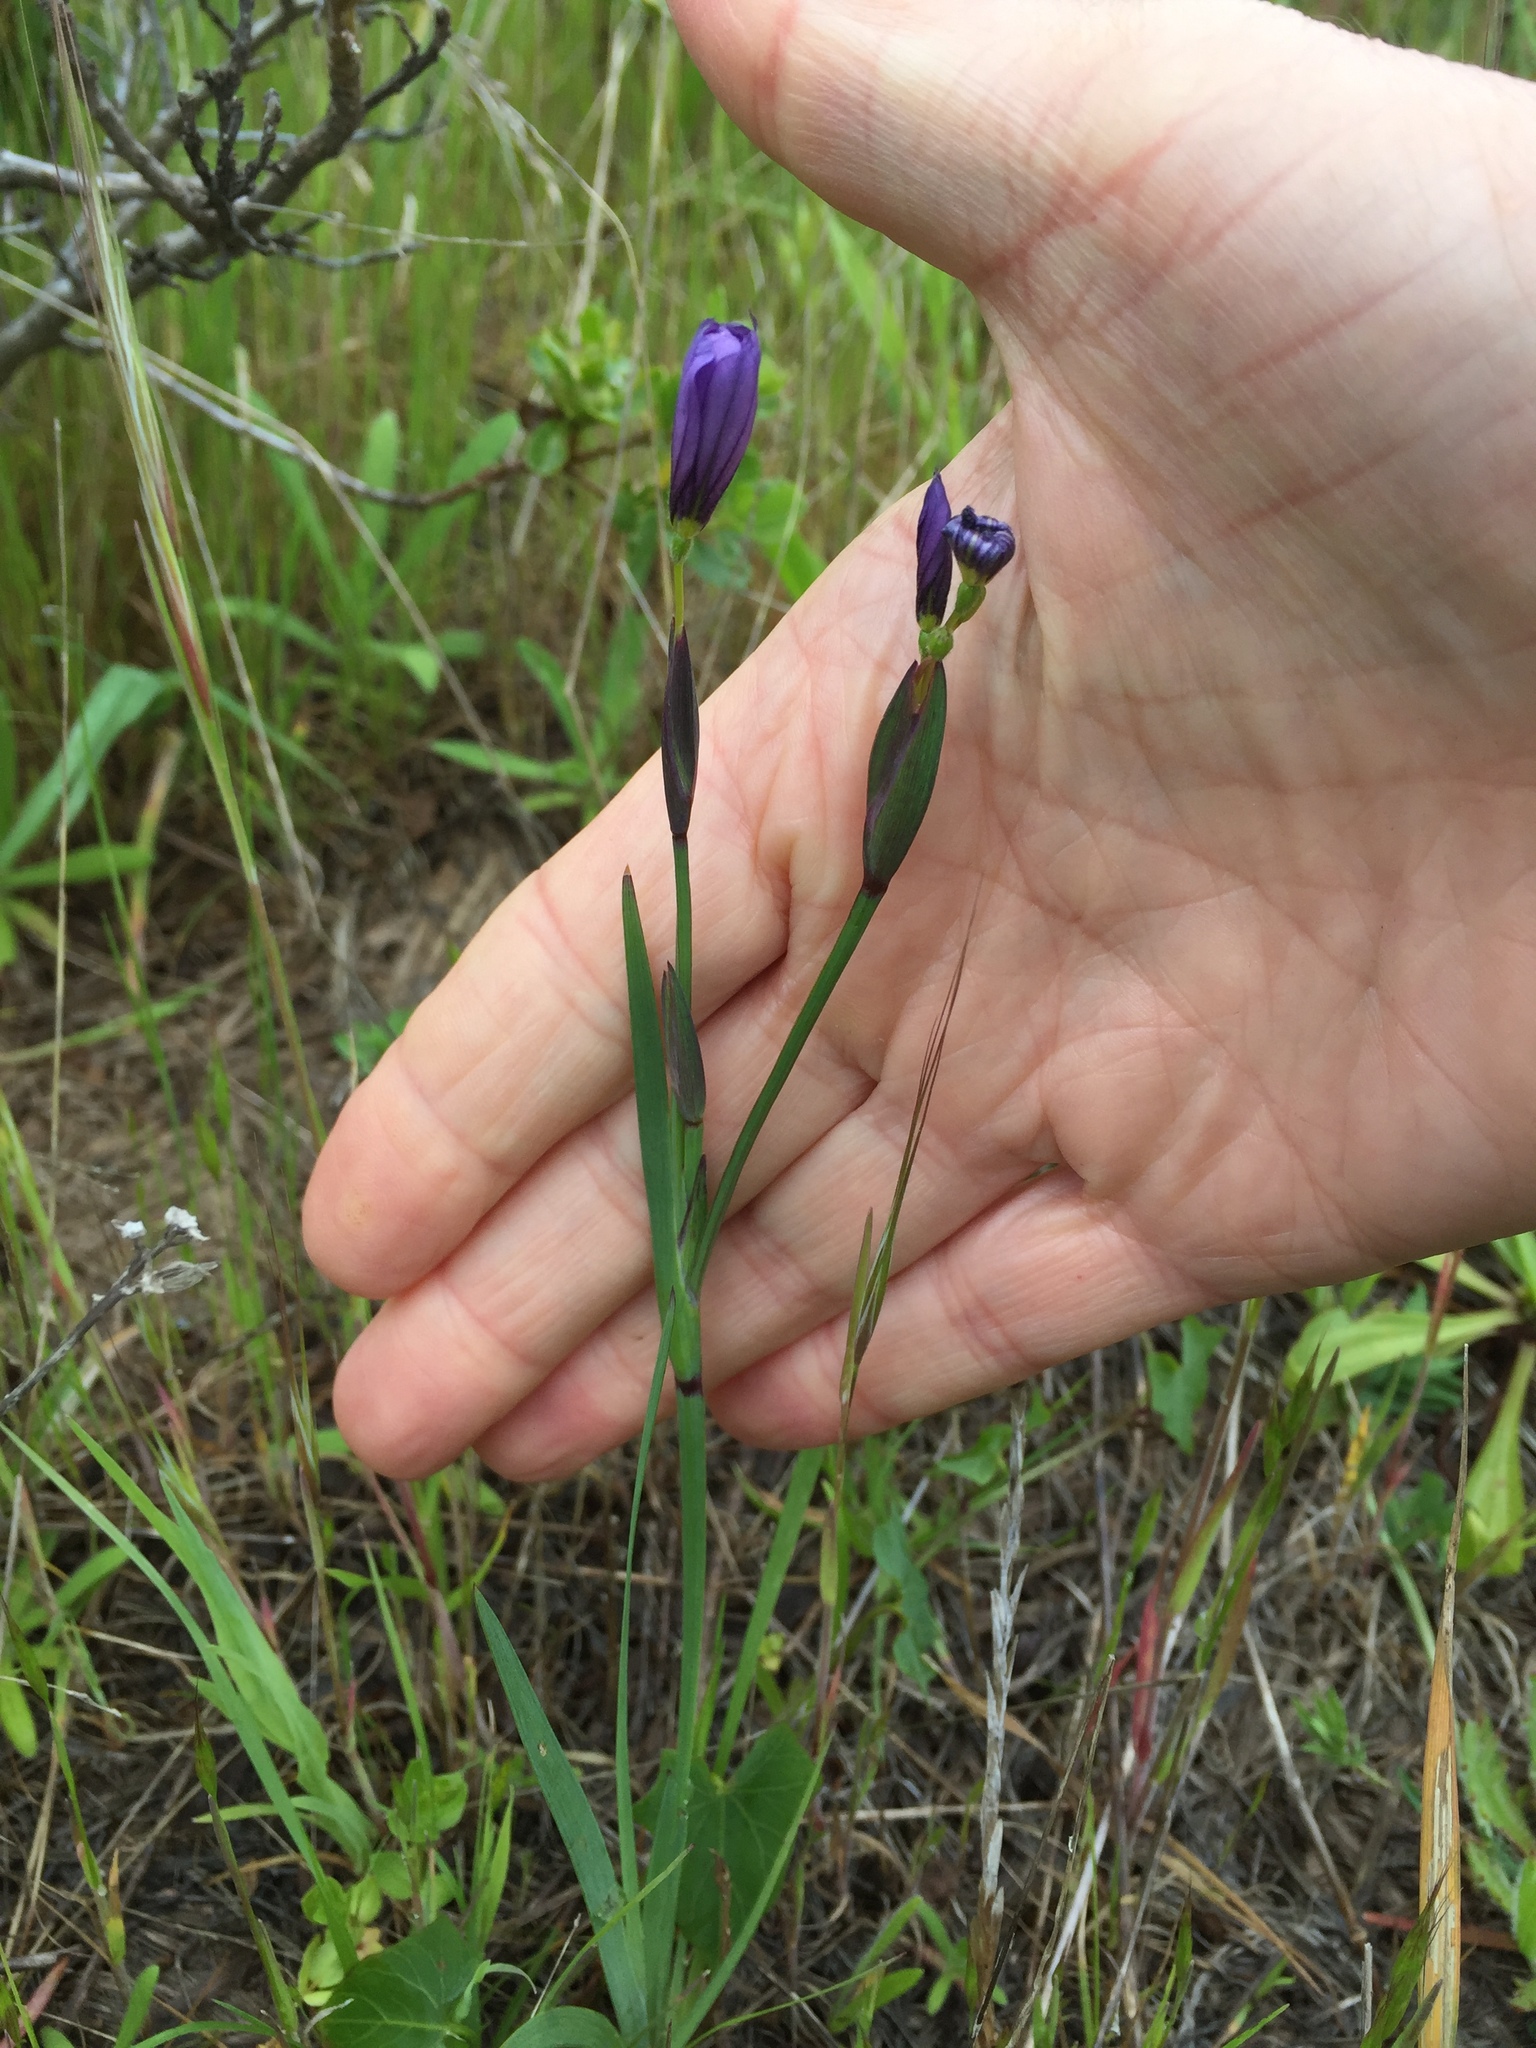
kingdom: Plantae
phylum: Tracheophyta
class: Liliopsida
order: Asparagales
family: Iridaceae
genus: Sisyrinchium
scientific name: Sisyrinchium bellum
